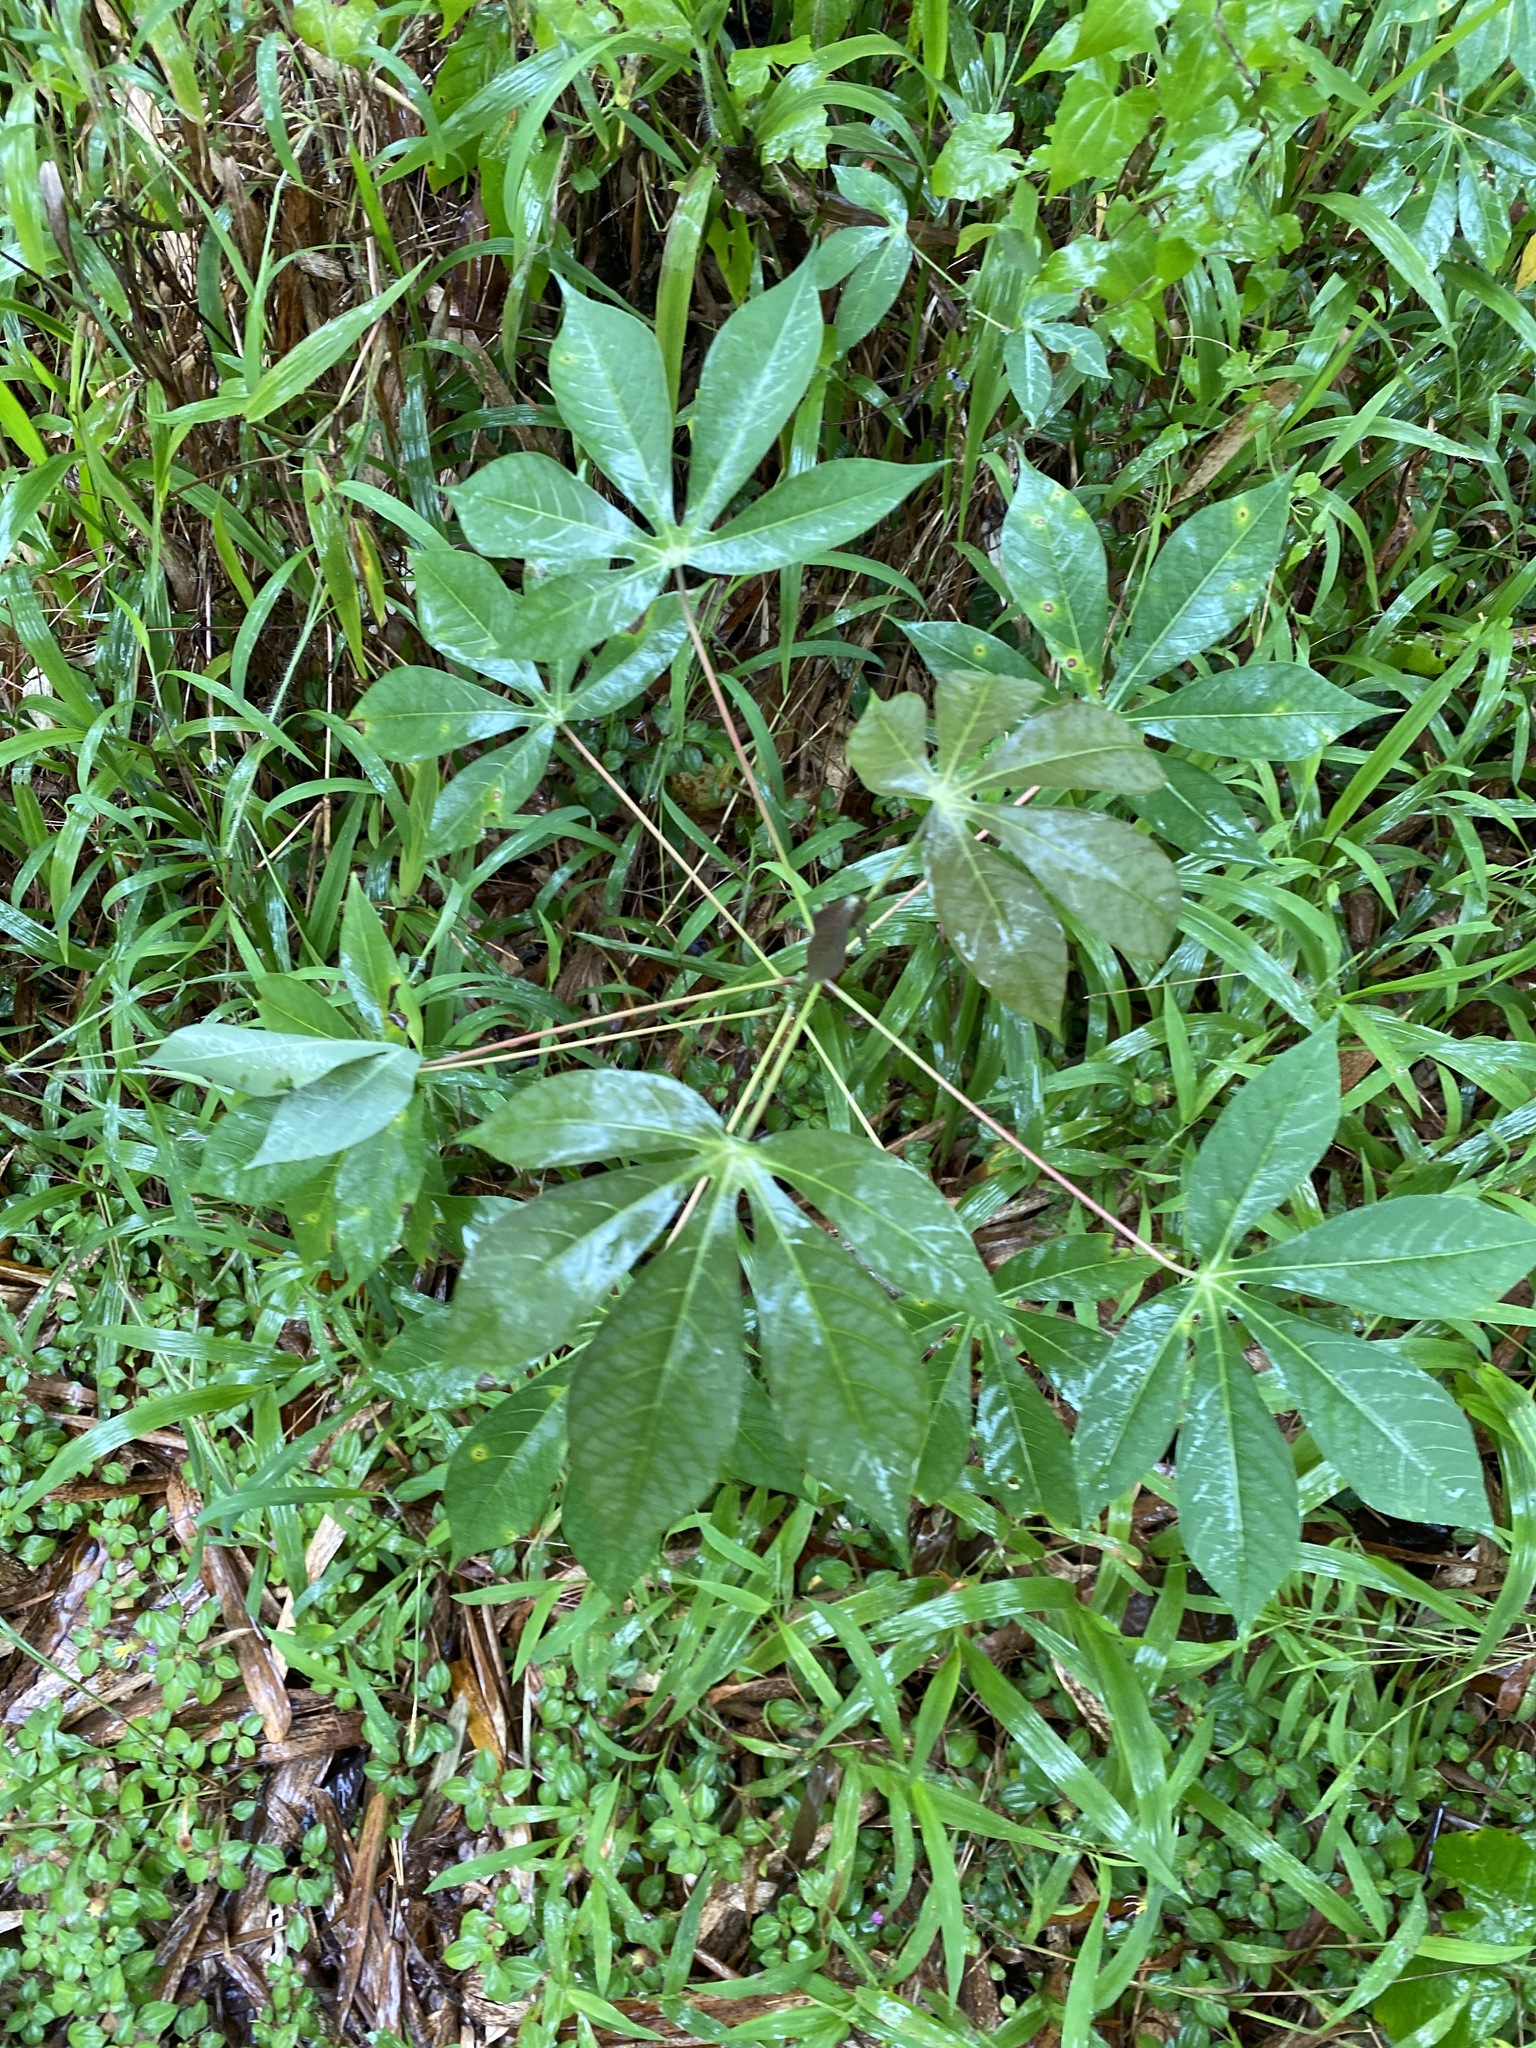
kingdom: Plantae
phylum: Tracheophyta
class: Magnoliopsida
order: Malpighiales
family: Euphorbiaceae
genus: Manihot
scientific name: Manihot esculenta
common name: Cassava
